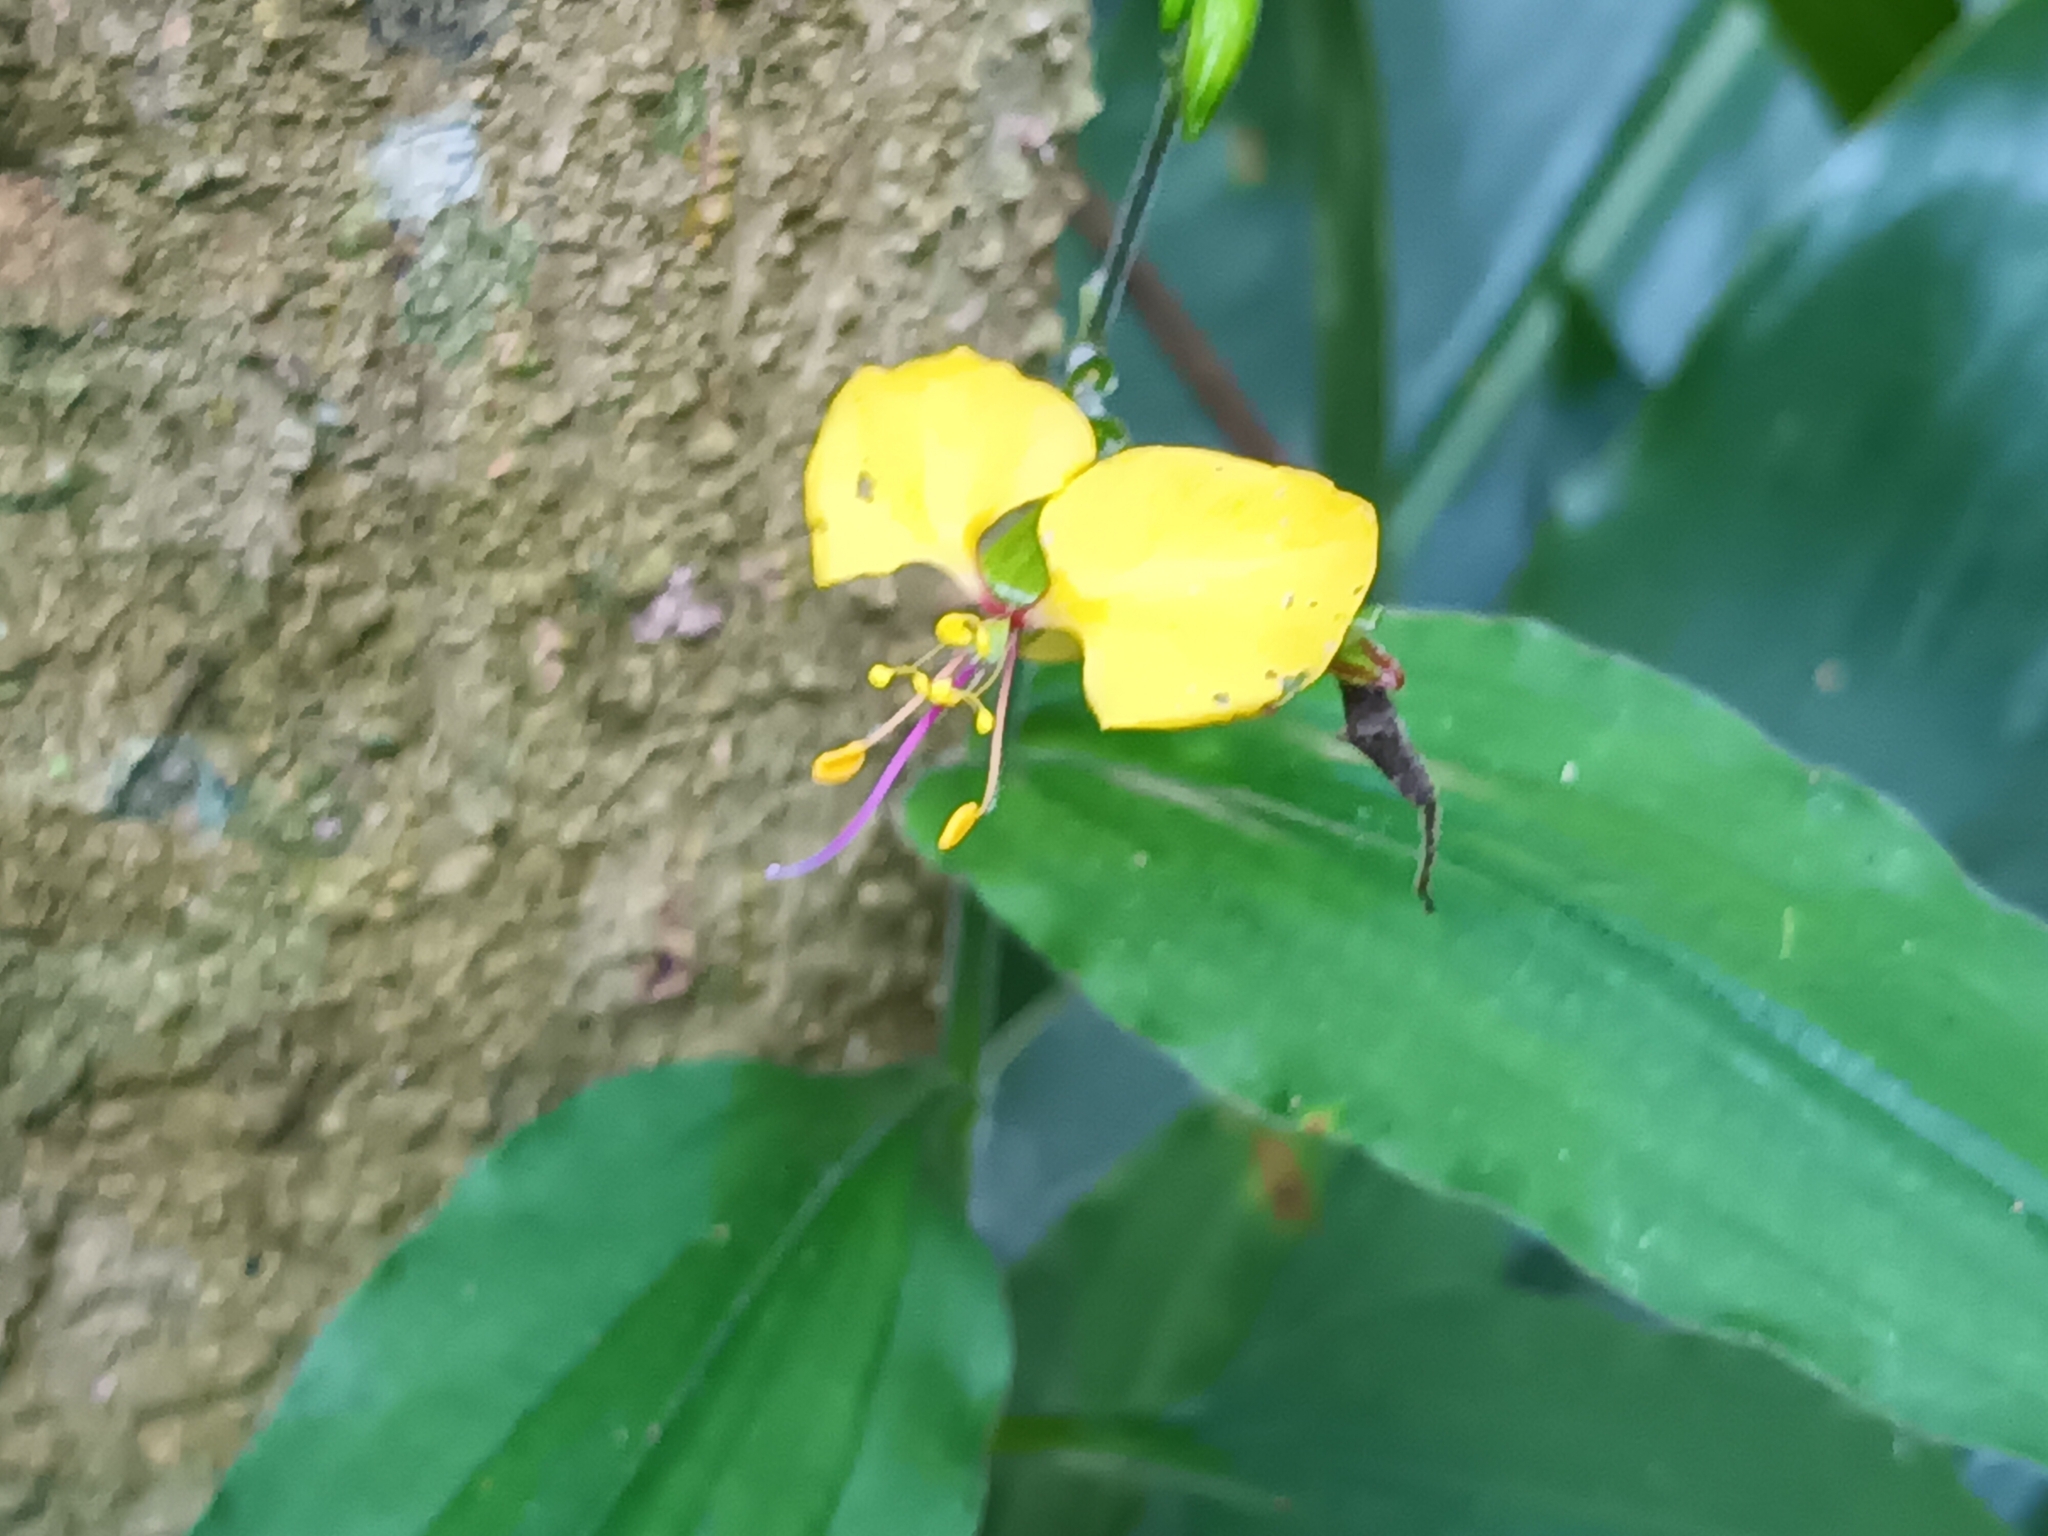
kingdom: Plantae
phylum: Tracheophyta
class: Liliopsida
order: Commelinales
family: Commelinaceae
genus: Aneilema
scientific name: Aneilema aequinoctiale
